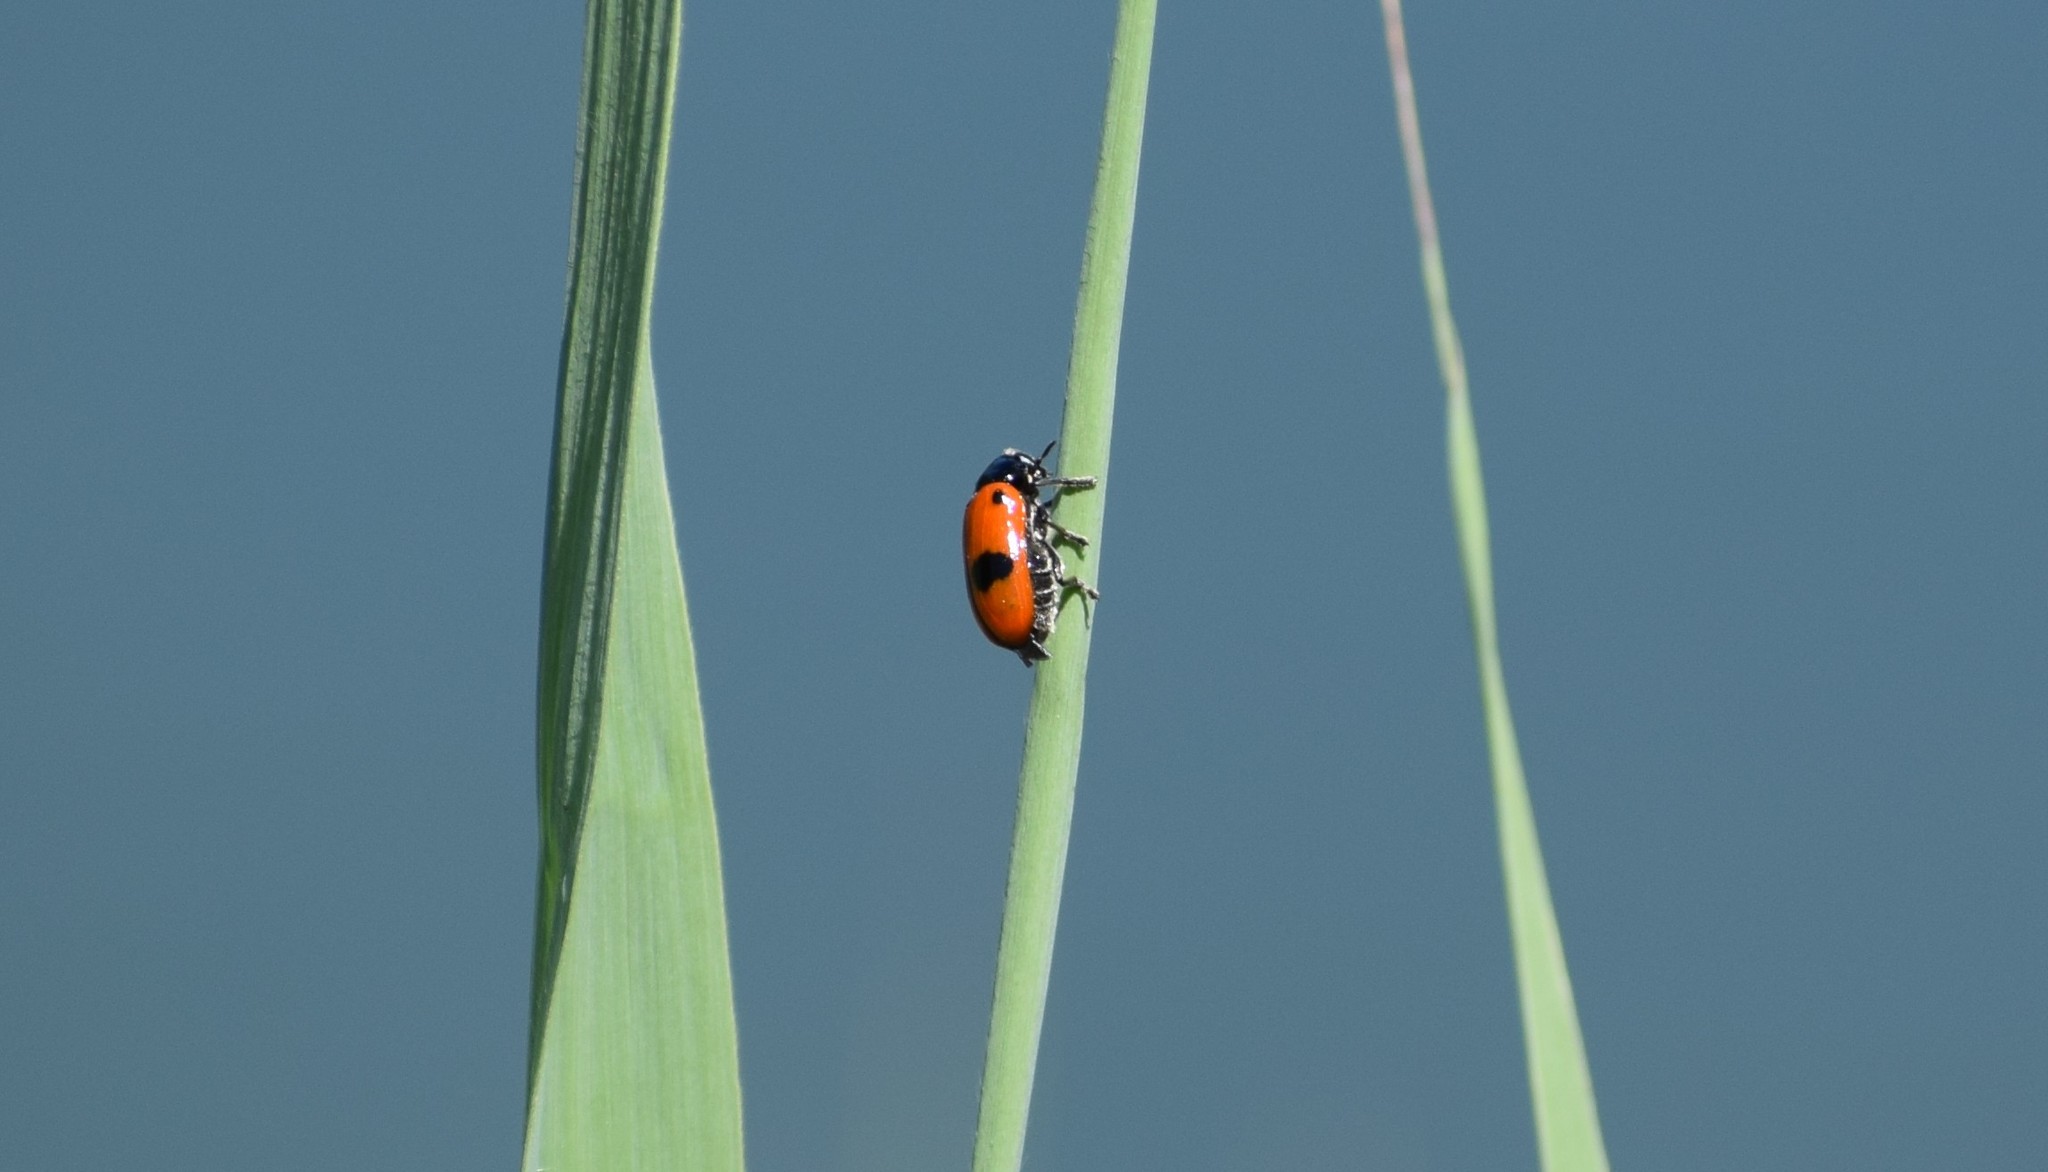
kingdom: Animalia
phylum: Arthropoda
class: Insecta
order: Coleoptera
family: Chrysomelidae
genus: Clytra
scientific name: Clytra laeviuscula
